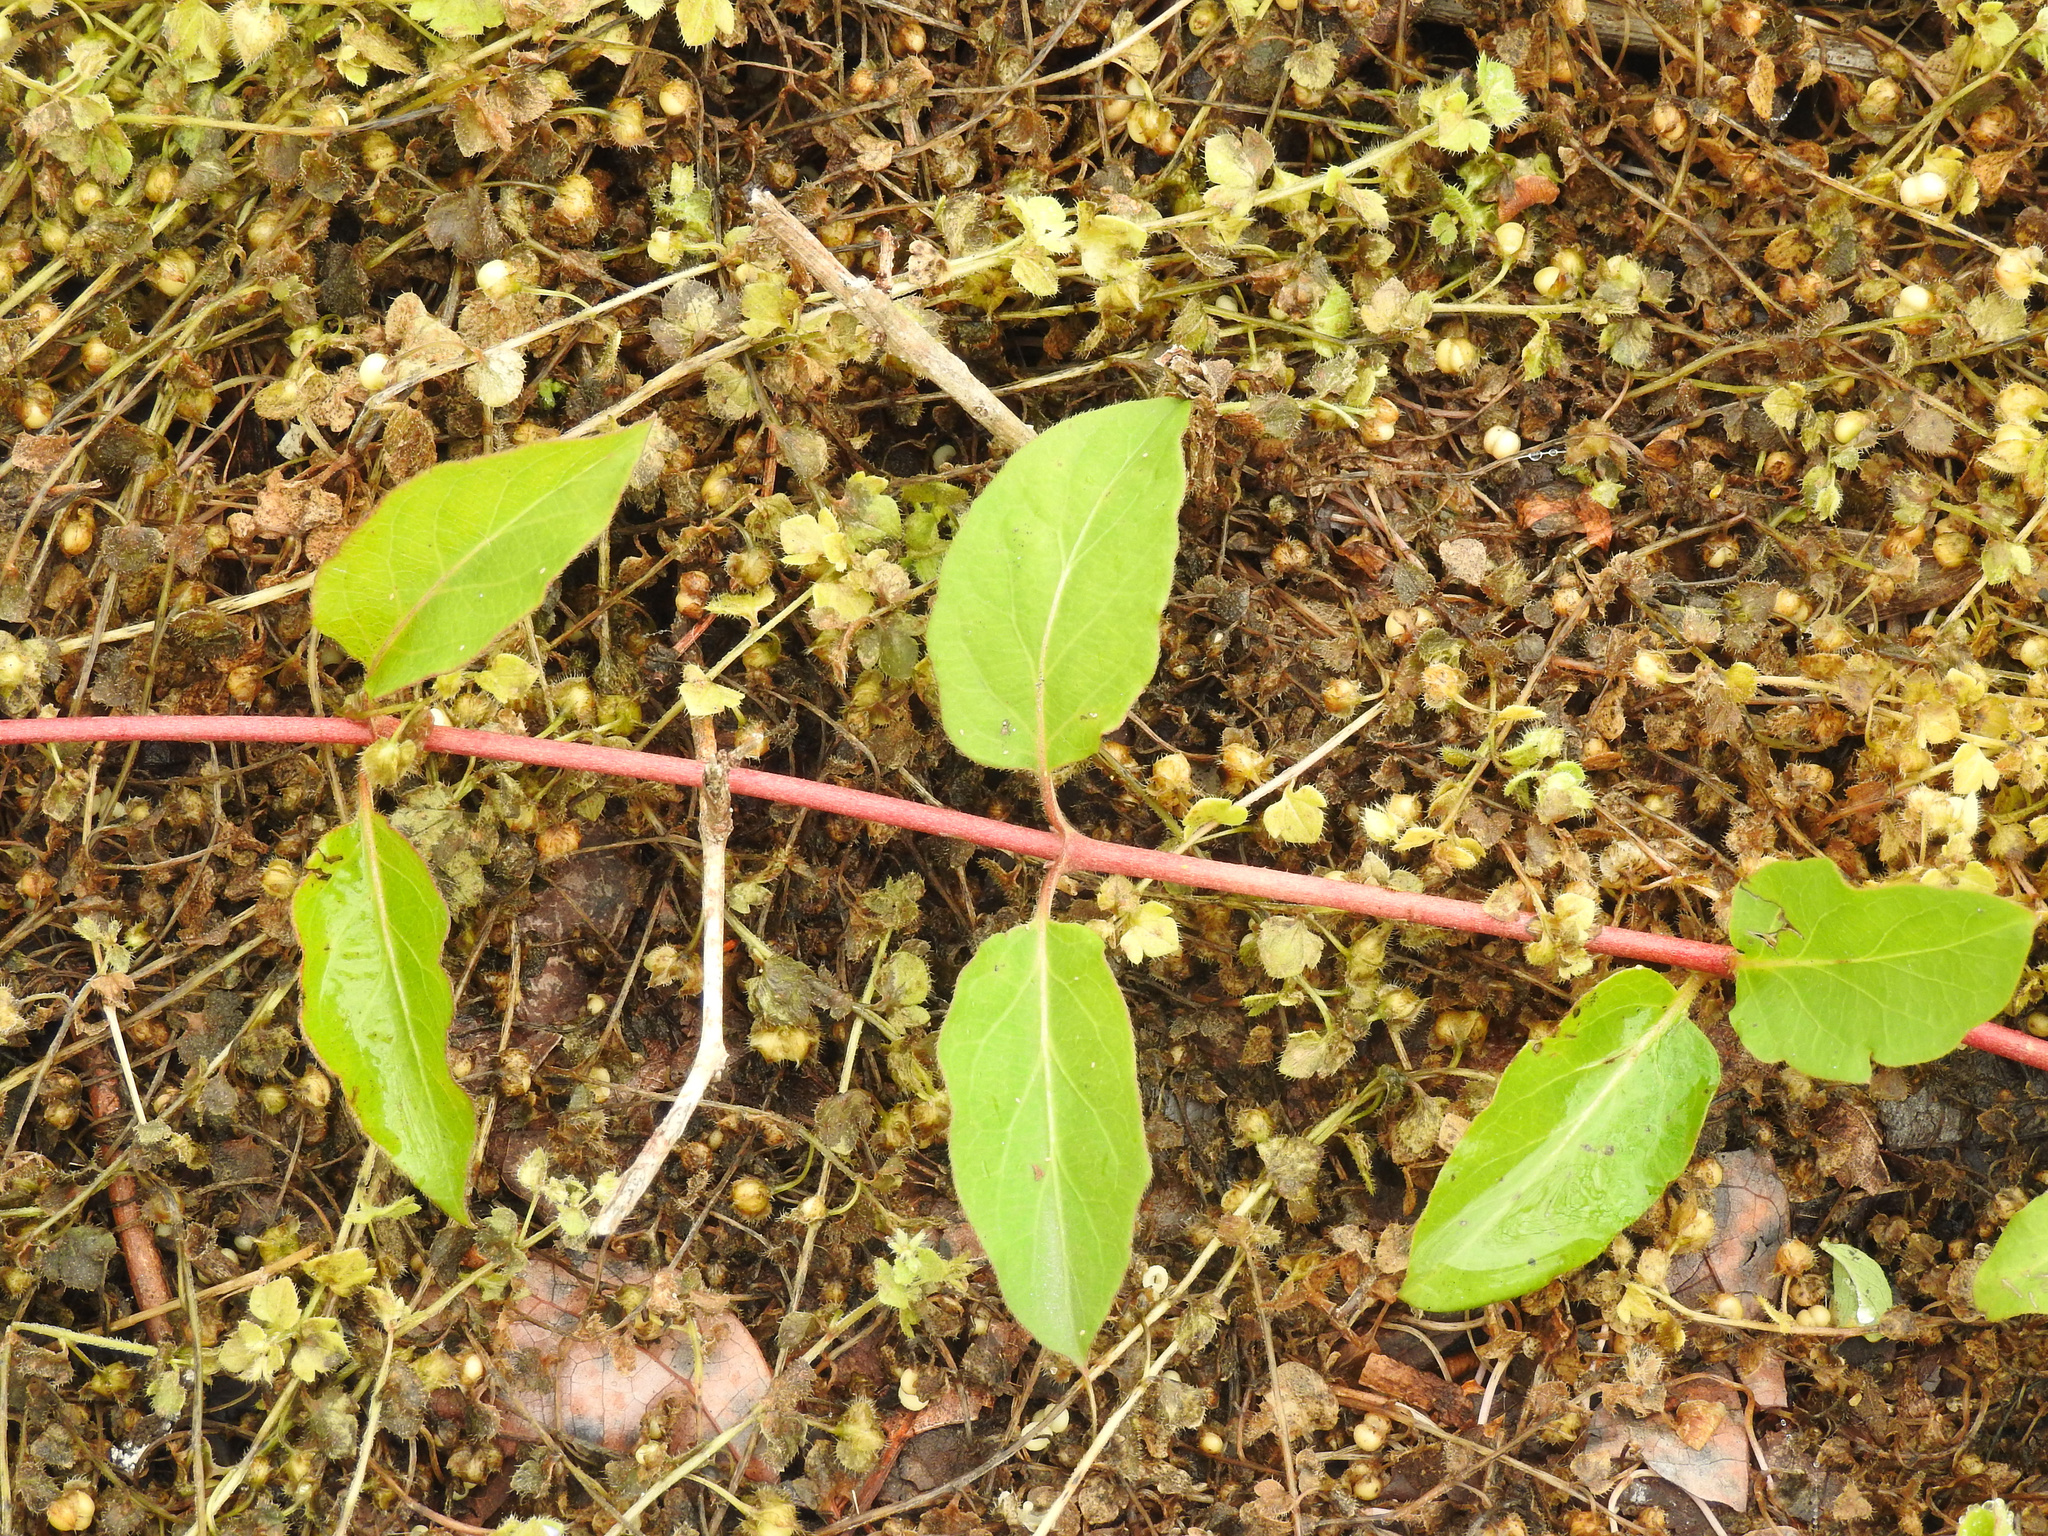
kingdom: Plantae
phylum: Tracheophyta
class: Magnoliopsida
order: Dipsacales
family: Caprifoliaceae
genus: Lonicera
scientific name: Lonicera japonica
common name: Japanese honeysuckle
